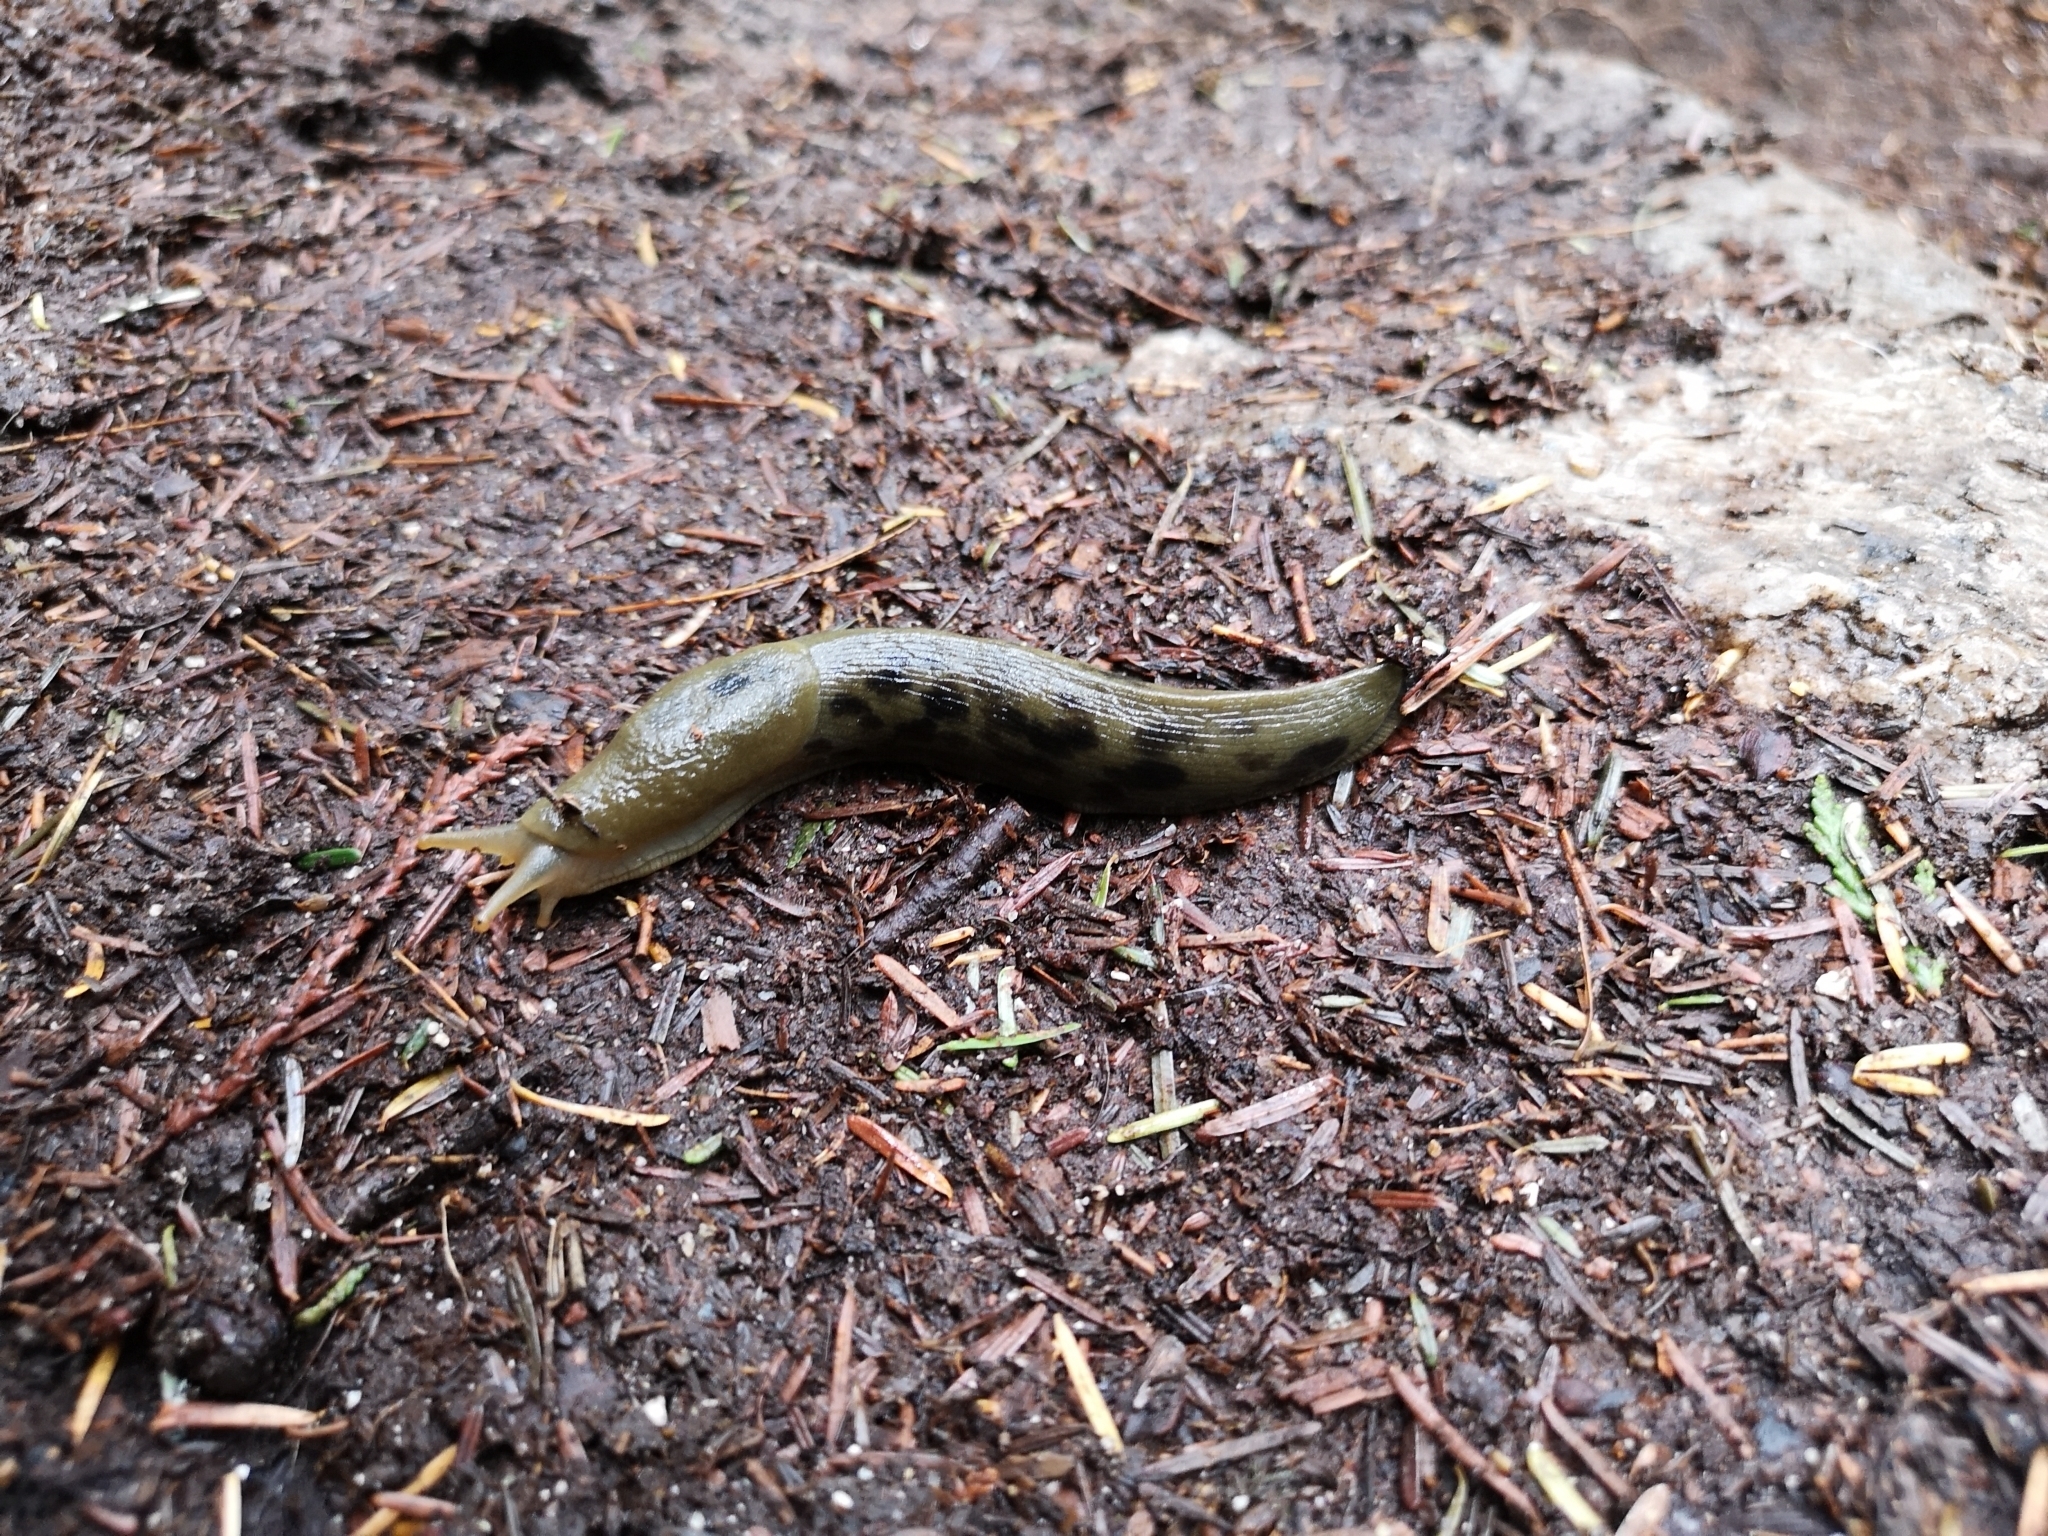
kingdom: Animalia
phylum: Mollusca
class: Gastropoda
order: Stylommatophora
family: Ariolimacidae
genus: Ariolimax
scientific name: Ariolimax columbianus
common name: Pacific banana slug
